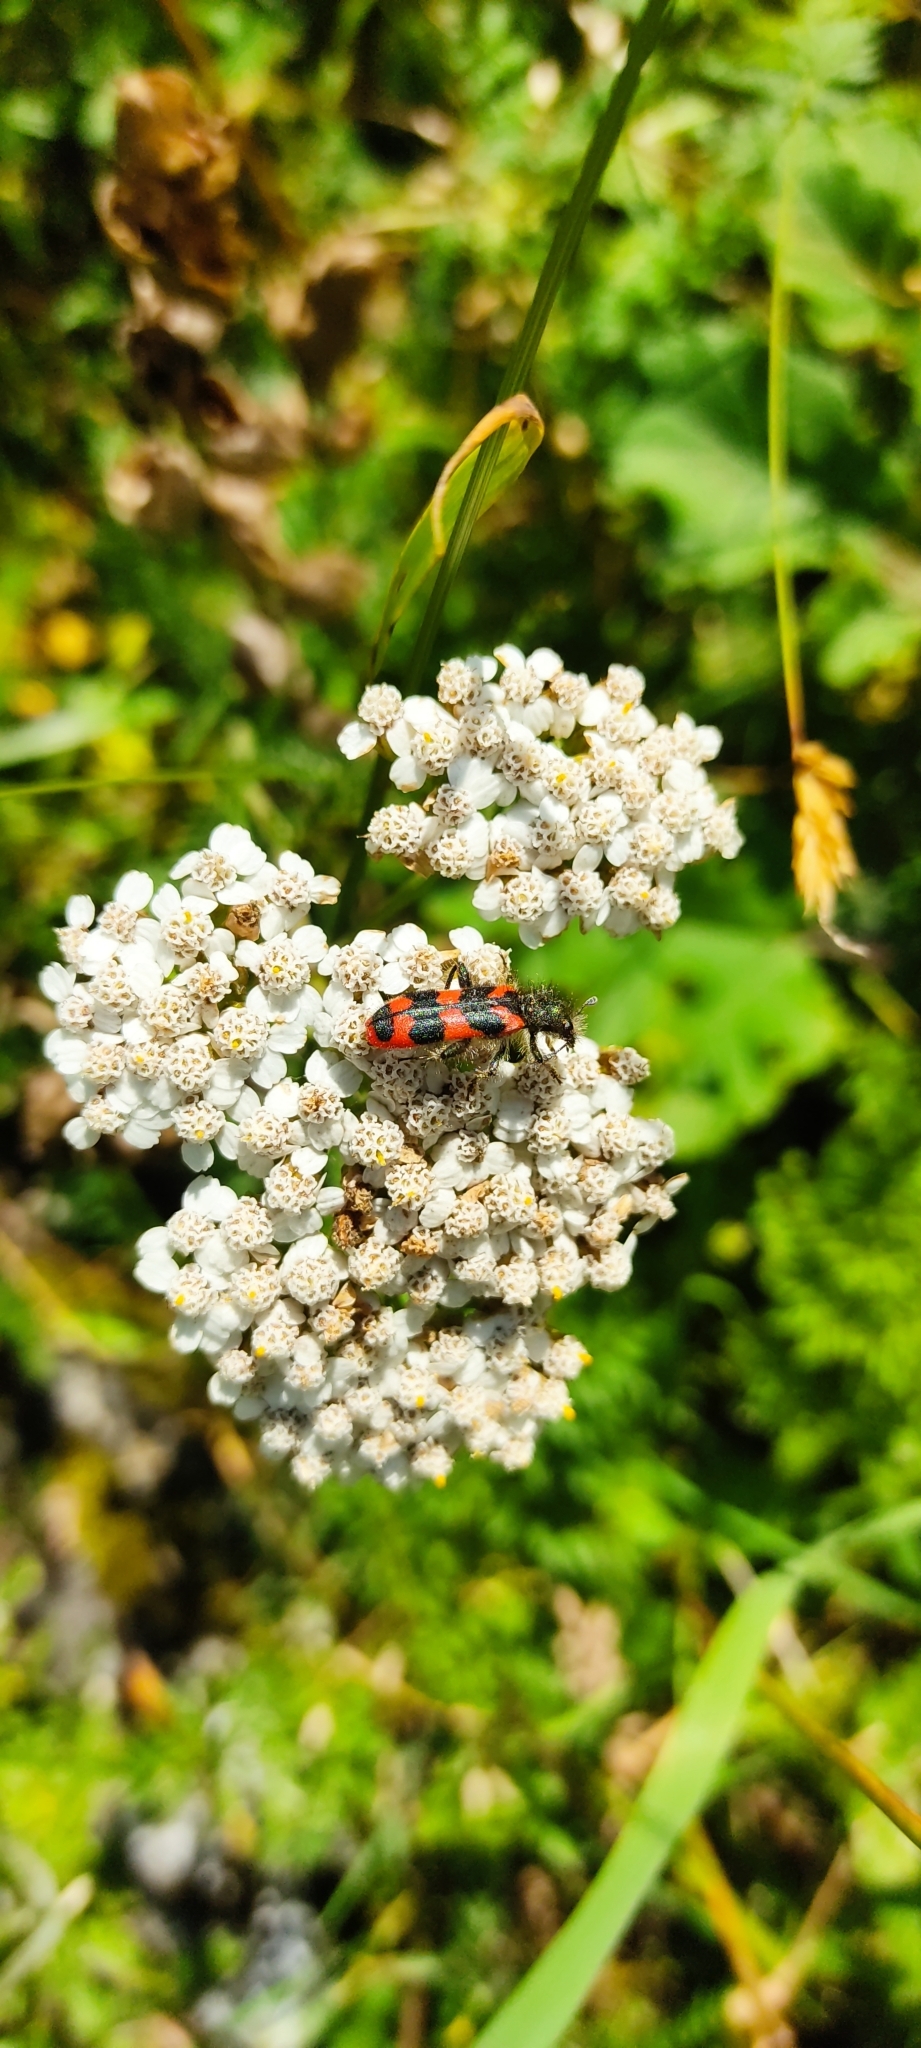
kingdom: Animalia
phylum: Arthropoda
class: Insecta
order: Coleoptera
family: Cleridae
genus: Trichodes
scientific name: Trichodes alvearius
